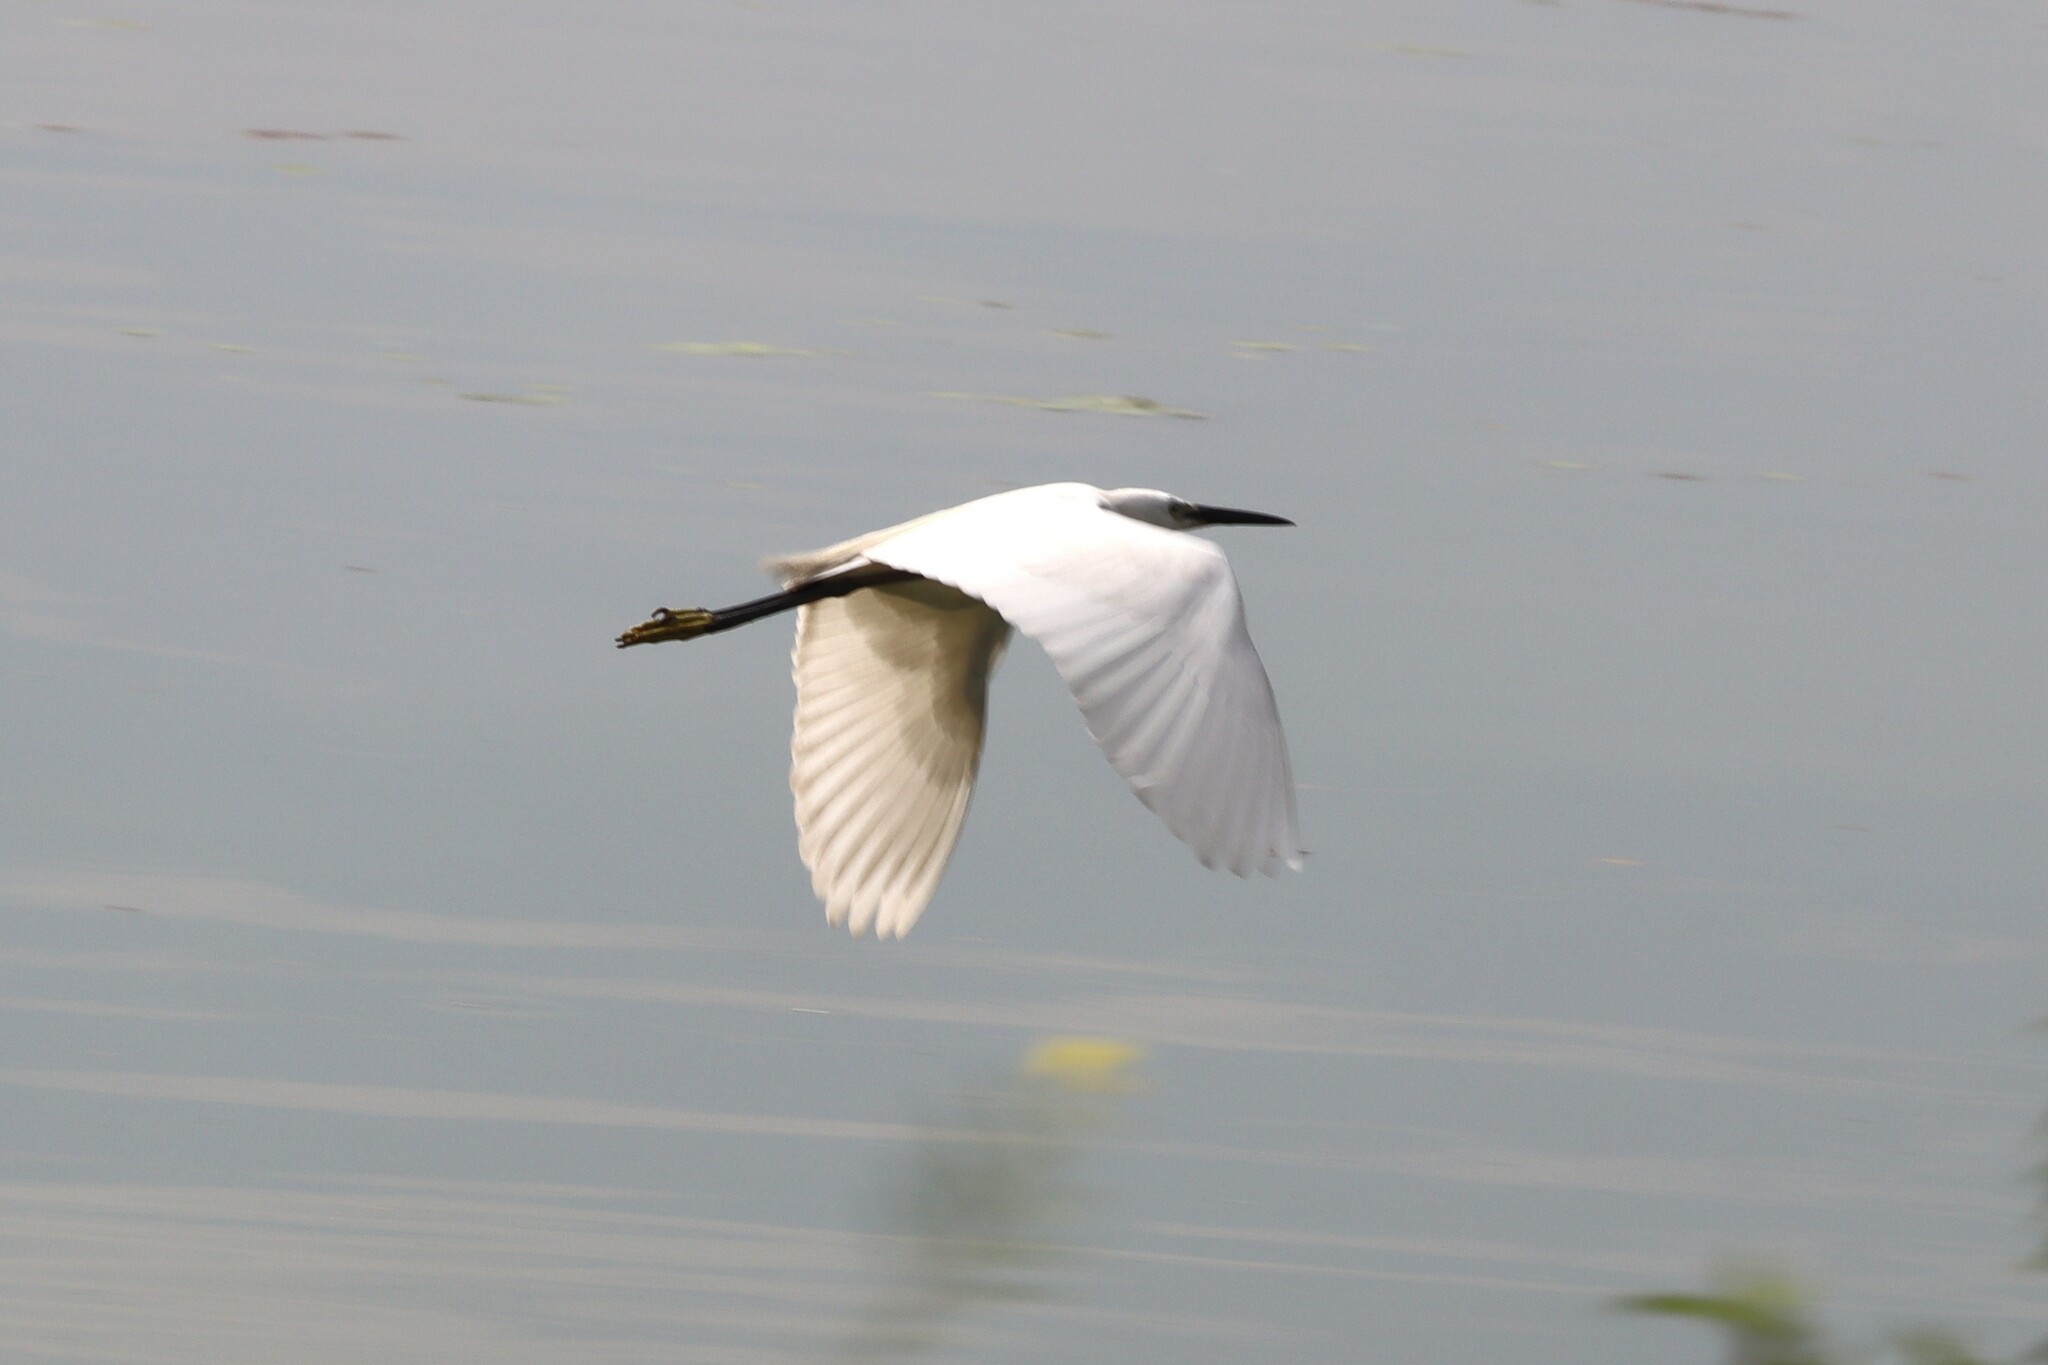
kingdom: Animalia
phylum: Chordata
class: Aves
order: Pelecaniformes
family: Ardeidae
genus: Egretta
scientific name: Egretta garzetta
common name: Little egret
